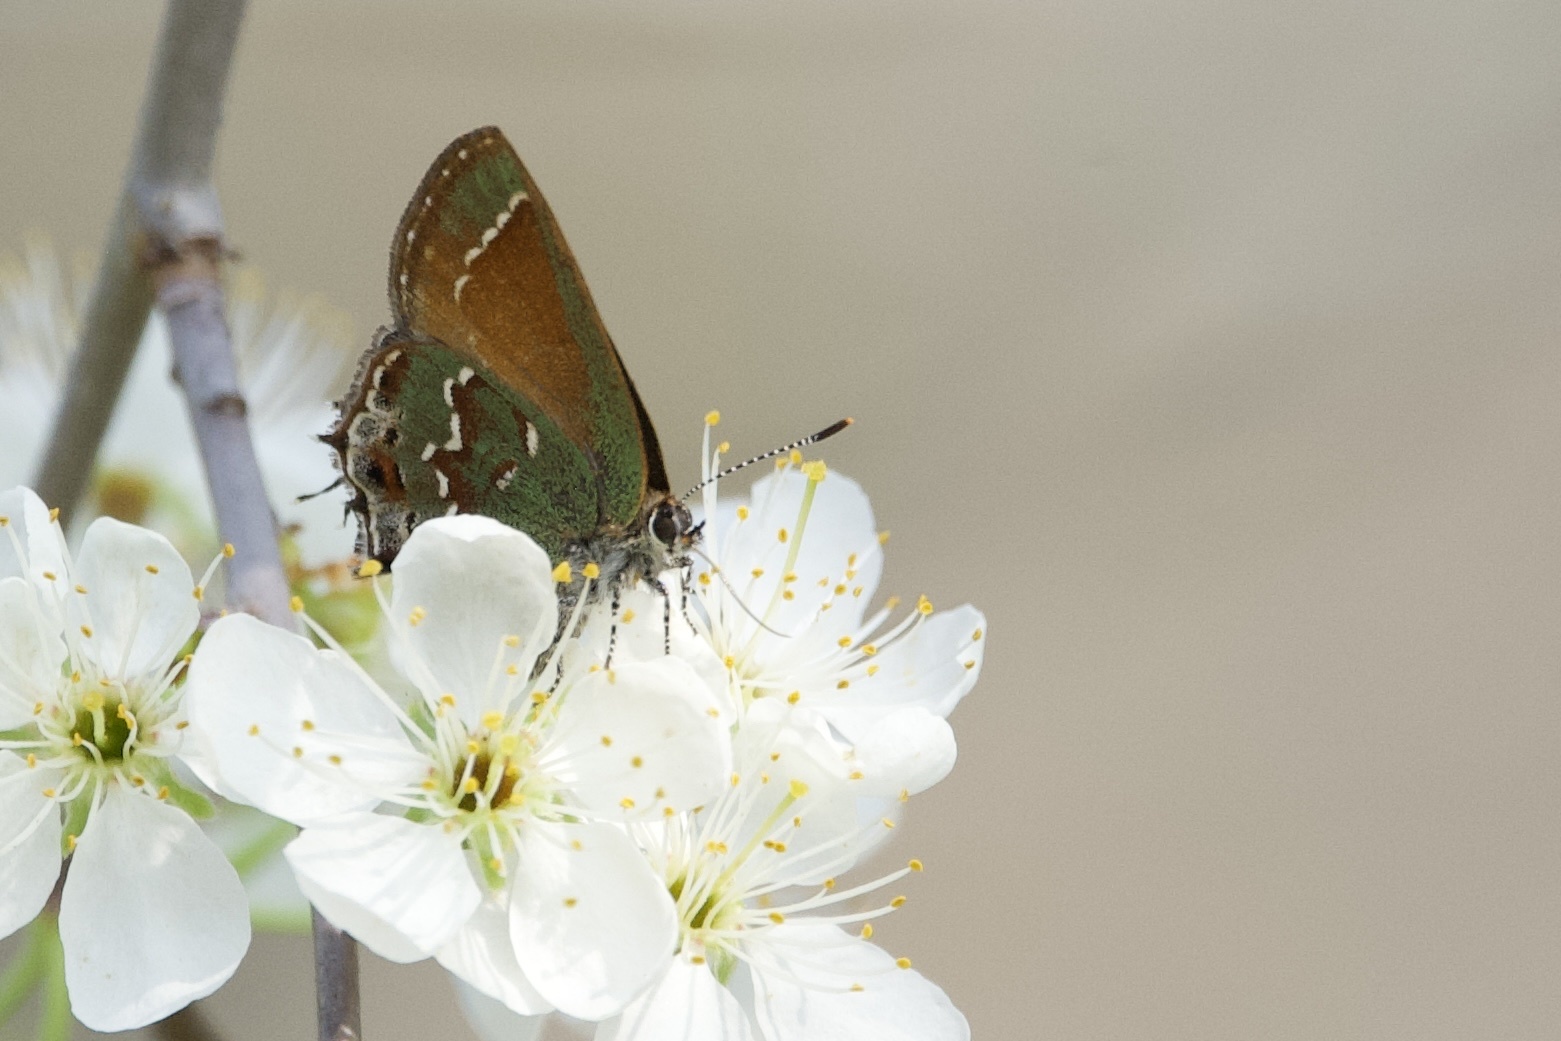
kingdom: Animalia
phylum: Arthropoda
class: Insecta
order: Lepidoptera
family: Lycaenidae
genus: Mitoura
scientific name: Mitoura gryneus
